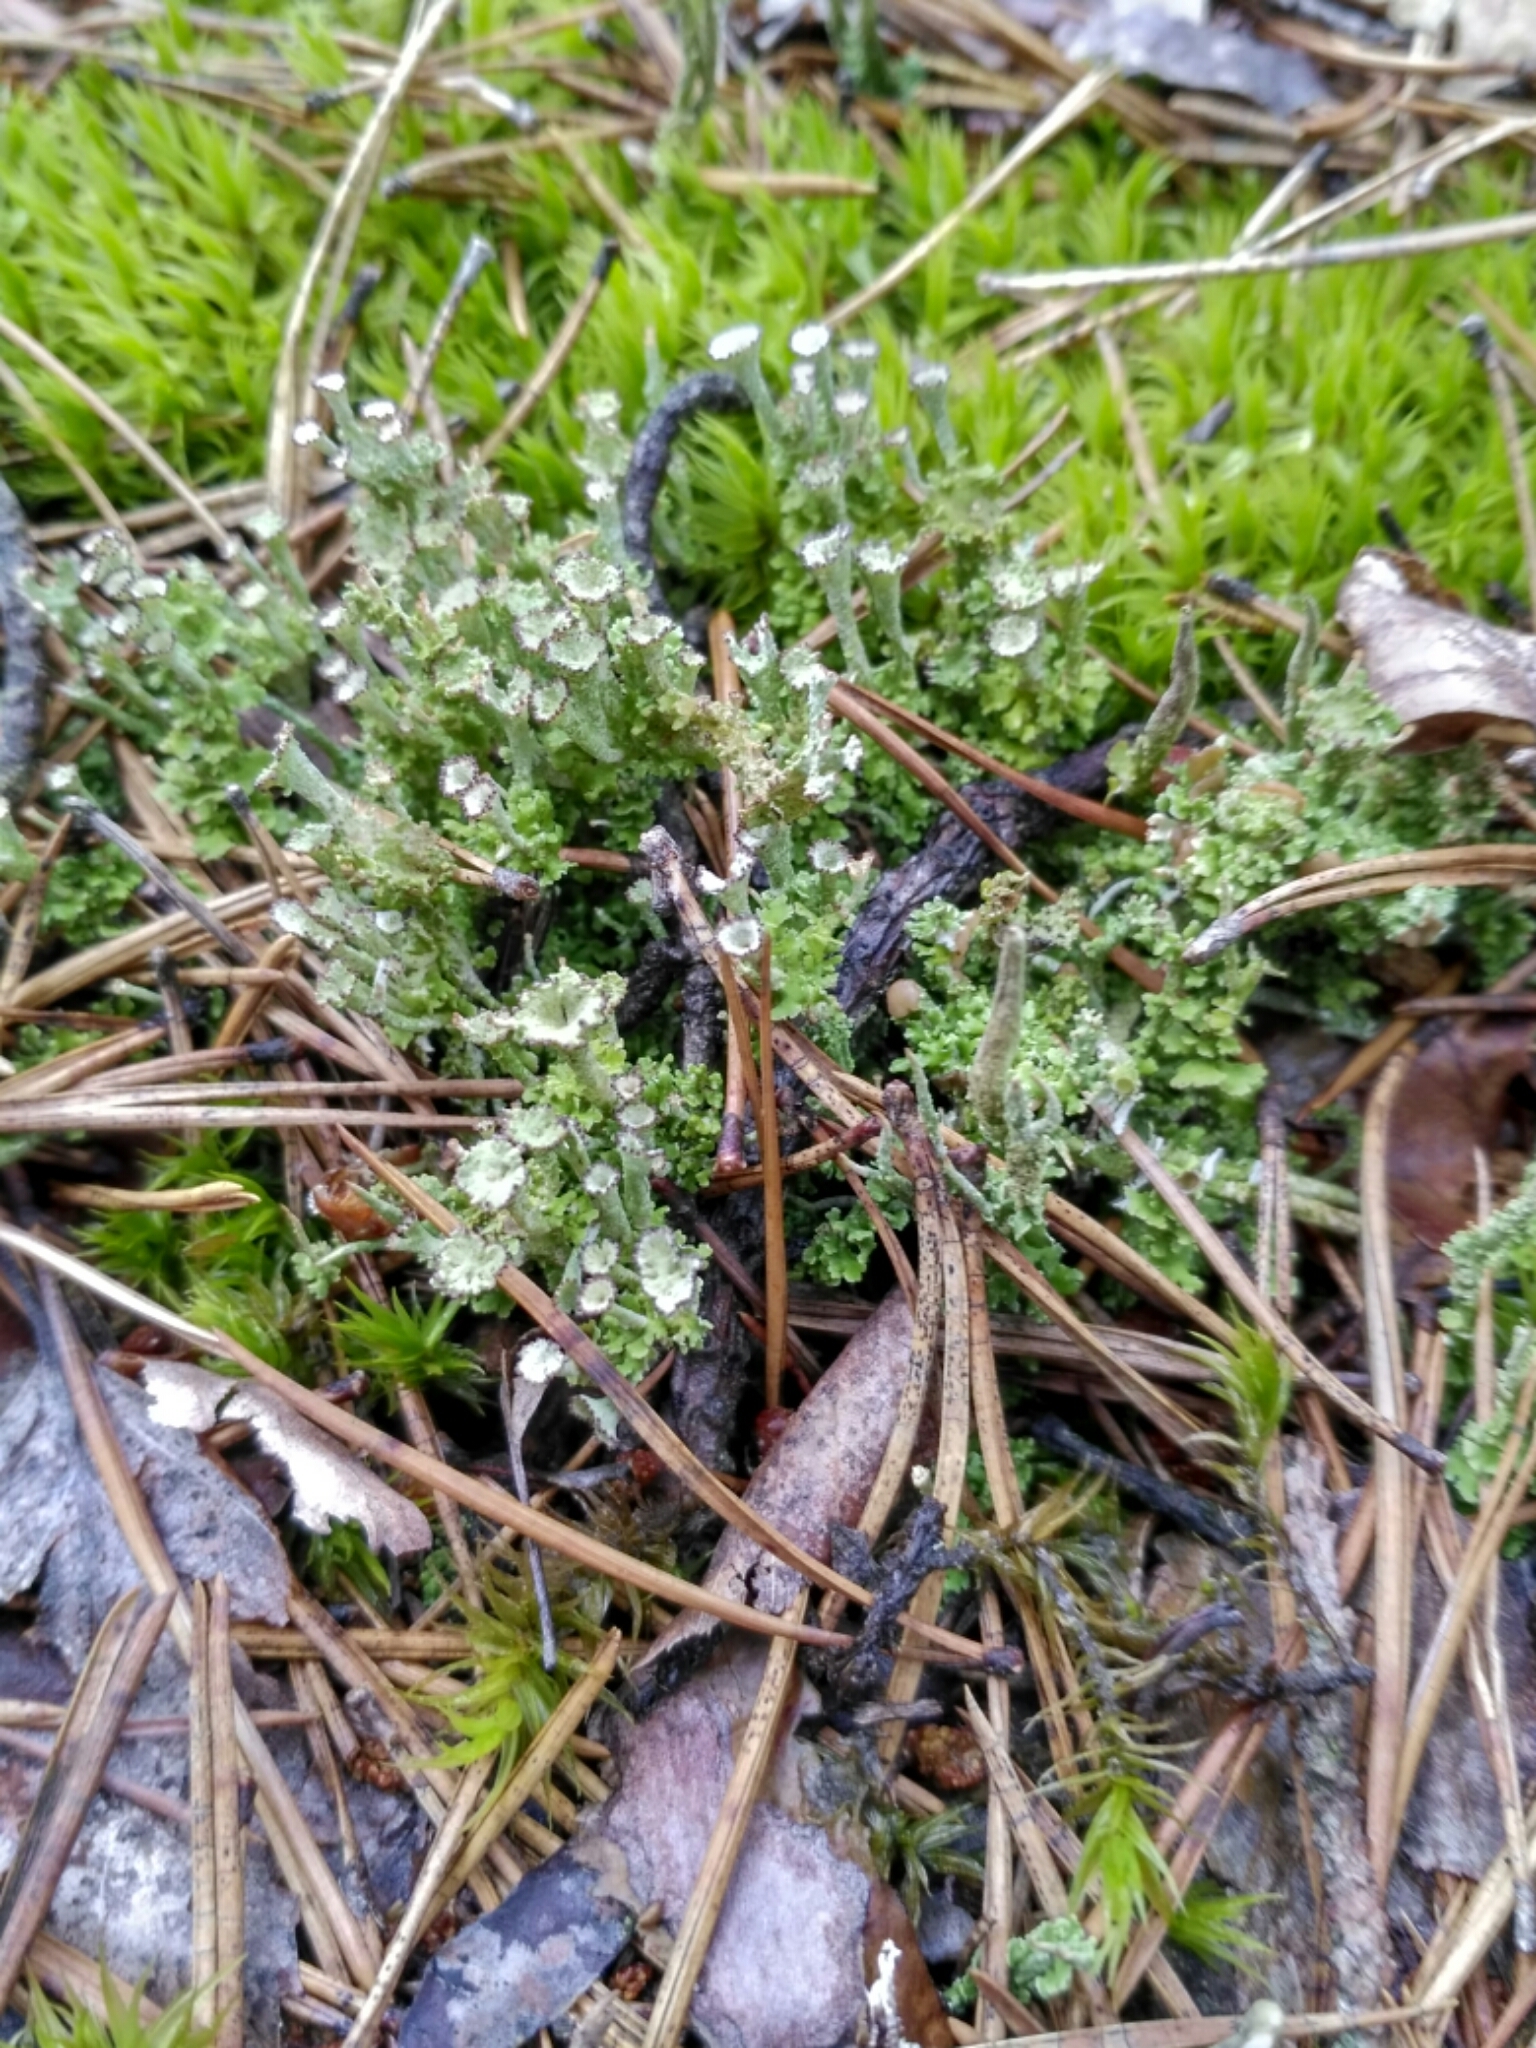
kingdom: Fungi
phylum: Ascomycota
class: Lecanoromycetes
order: Lecanorales
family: Cladoniaceae
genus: Cladonia
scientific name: Cladonia
